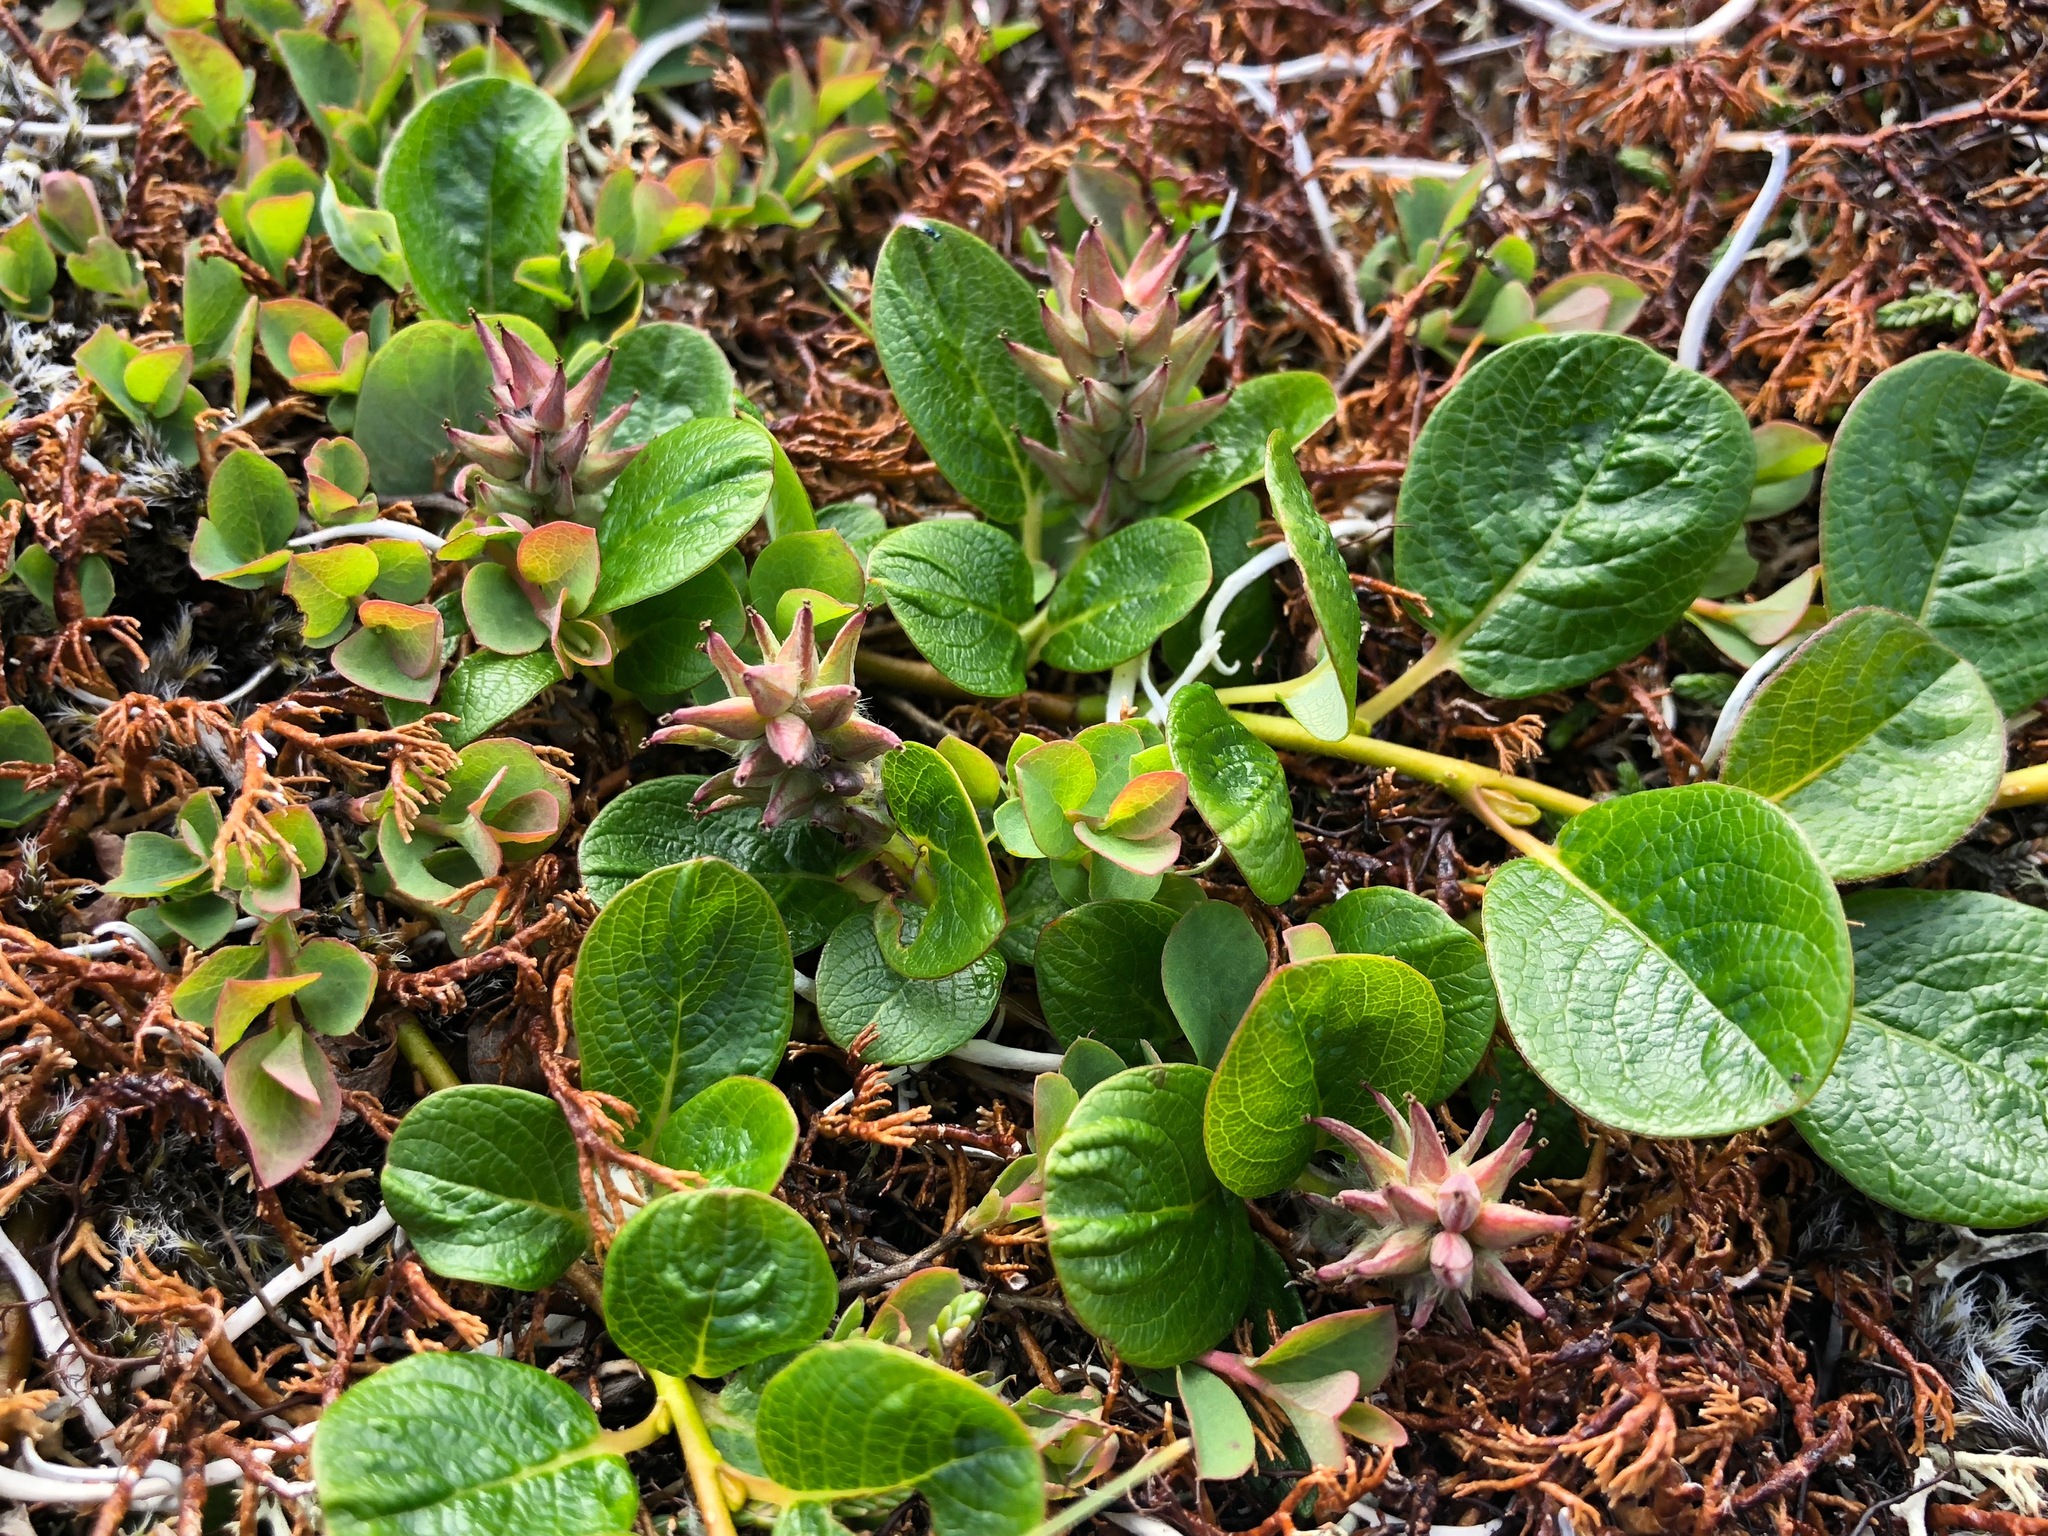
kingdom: Plantae
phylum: Tracheophyta
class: Magnoliopsida
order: Malpighiales
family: Salicaceae
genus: Salix
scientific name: Salix ovalifolia
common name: Arctic seashore willow
